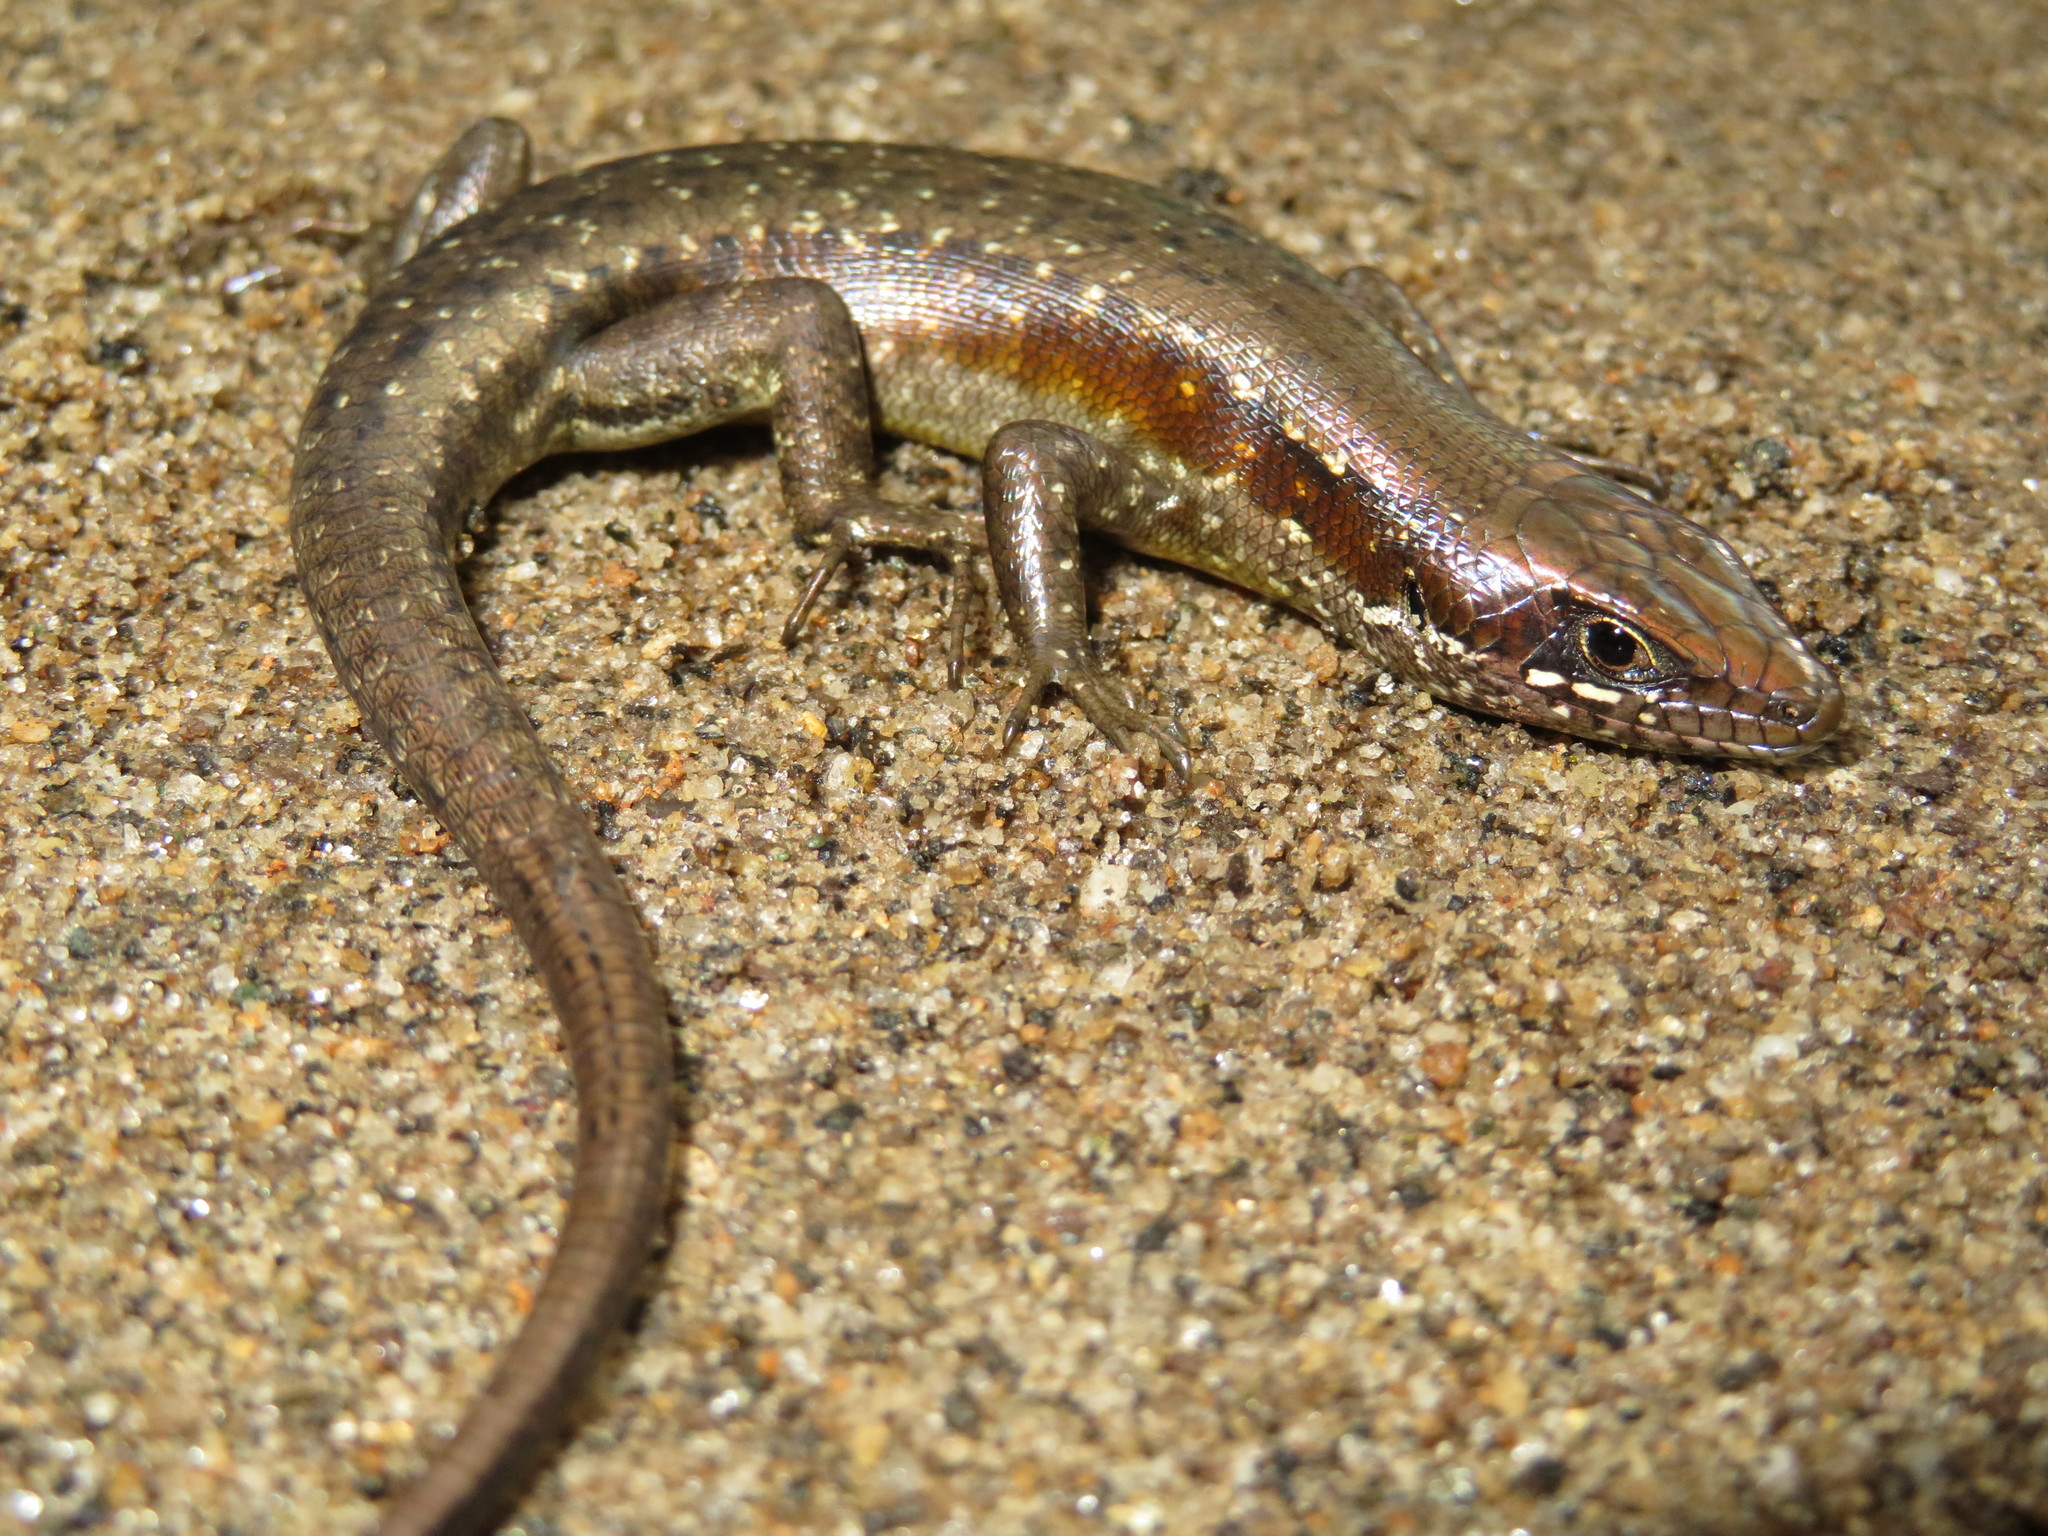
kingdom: Animalia
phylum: Chordata
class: Squamata
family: Scincidae
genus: Trachylepis
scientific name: Trachylepis maculilabris
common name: Speckle-lipped mabuya
